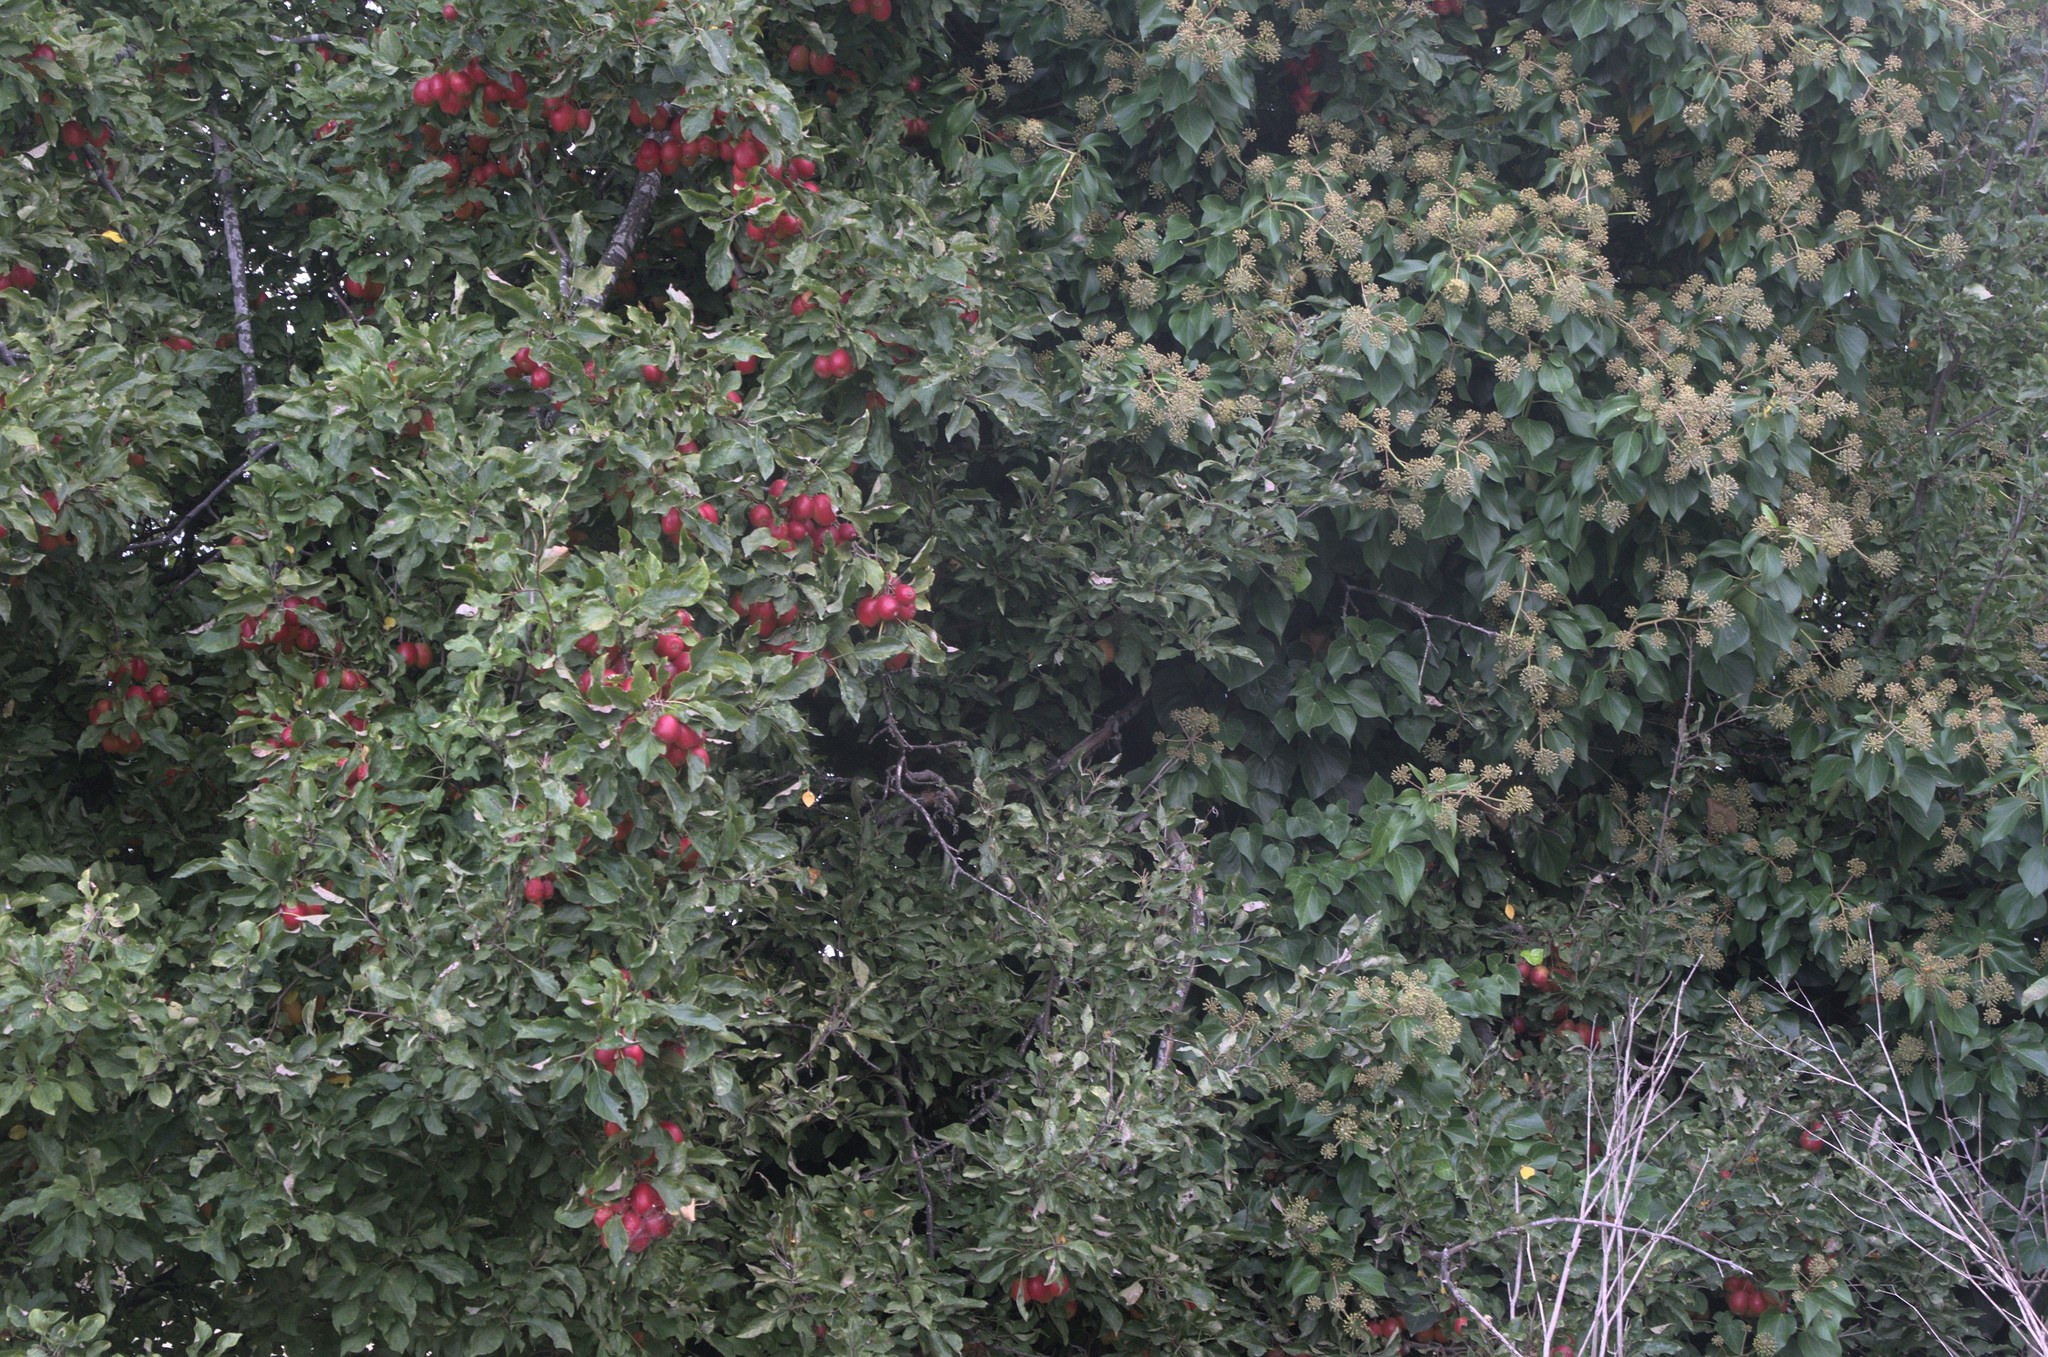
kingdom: Plantae
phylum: Tracheophyta
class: Magnoliopsida
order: Apiales
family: Araliaceae
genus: Hedera
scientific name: Hedera
